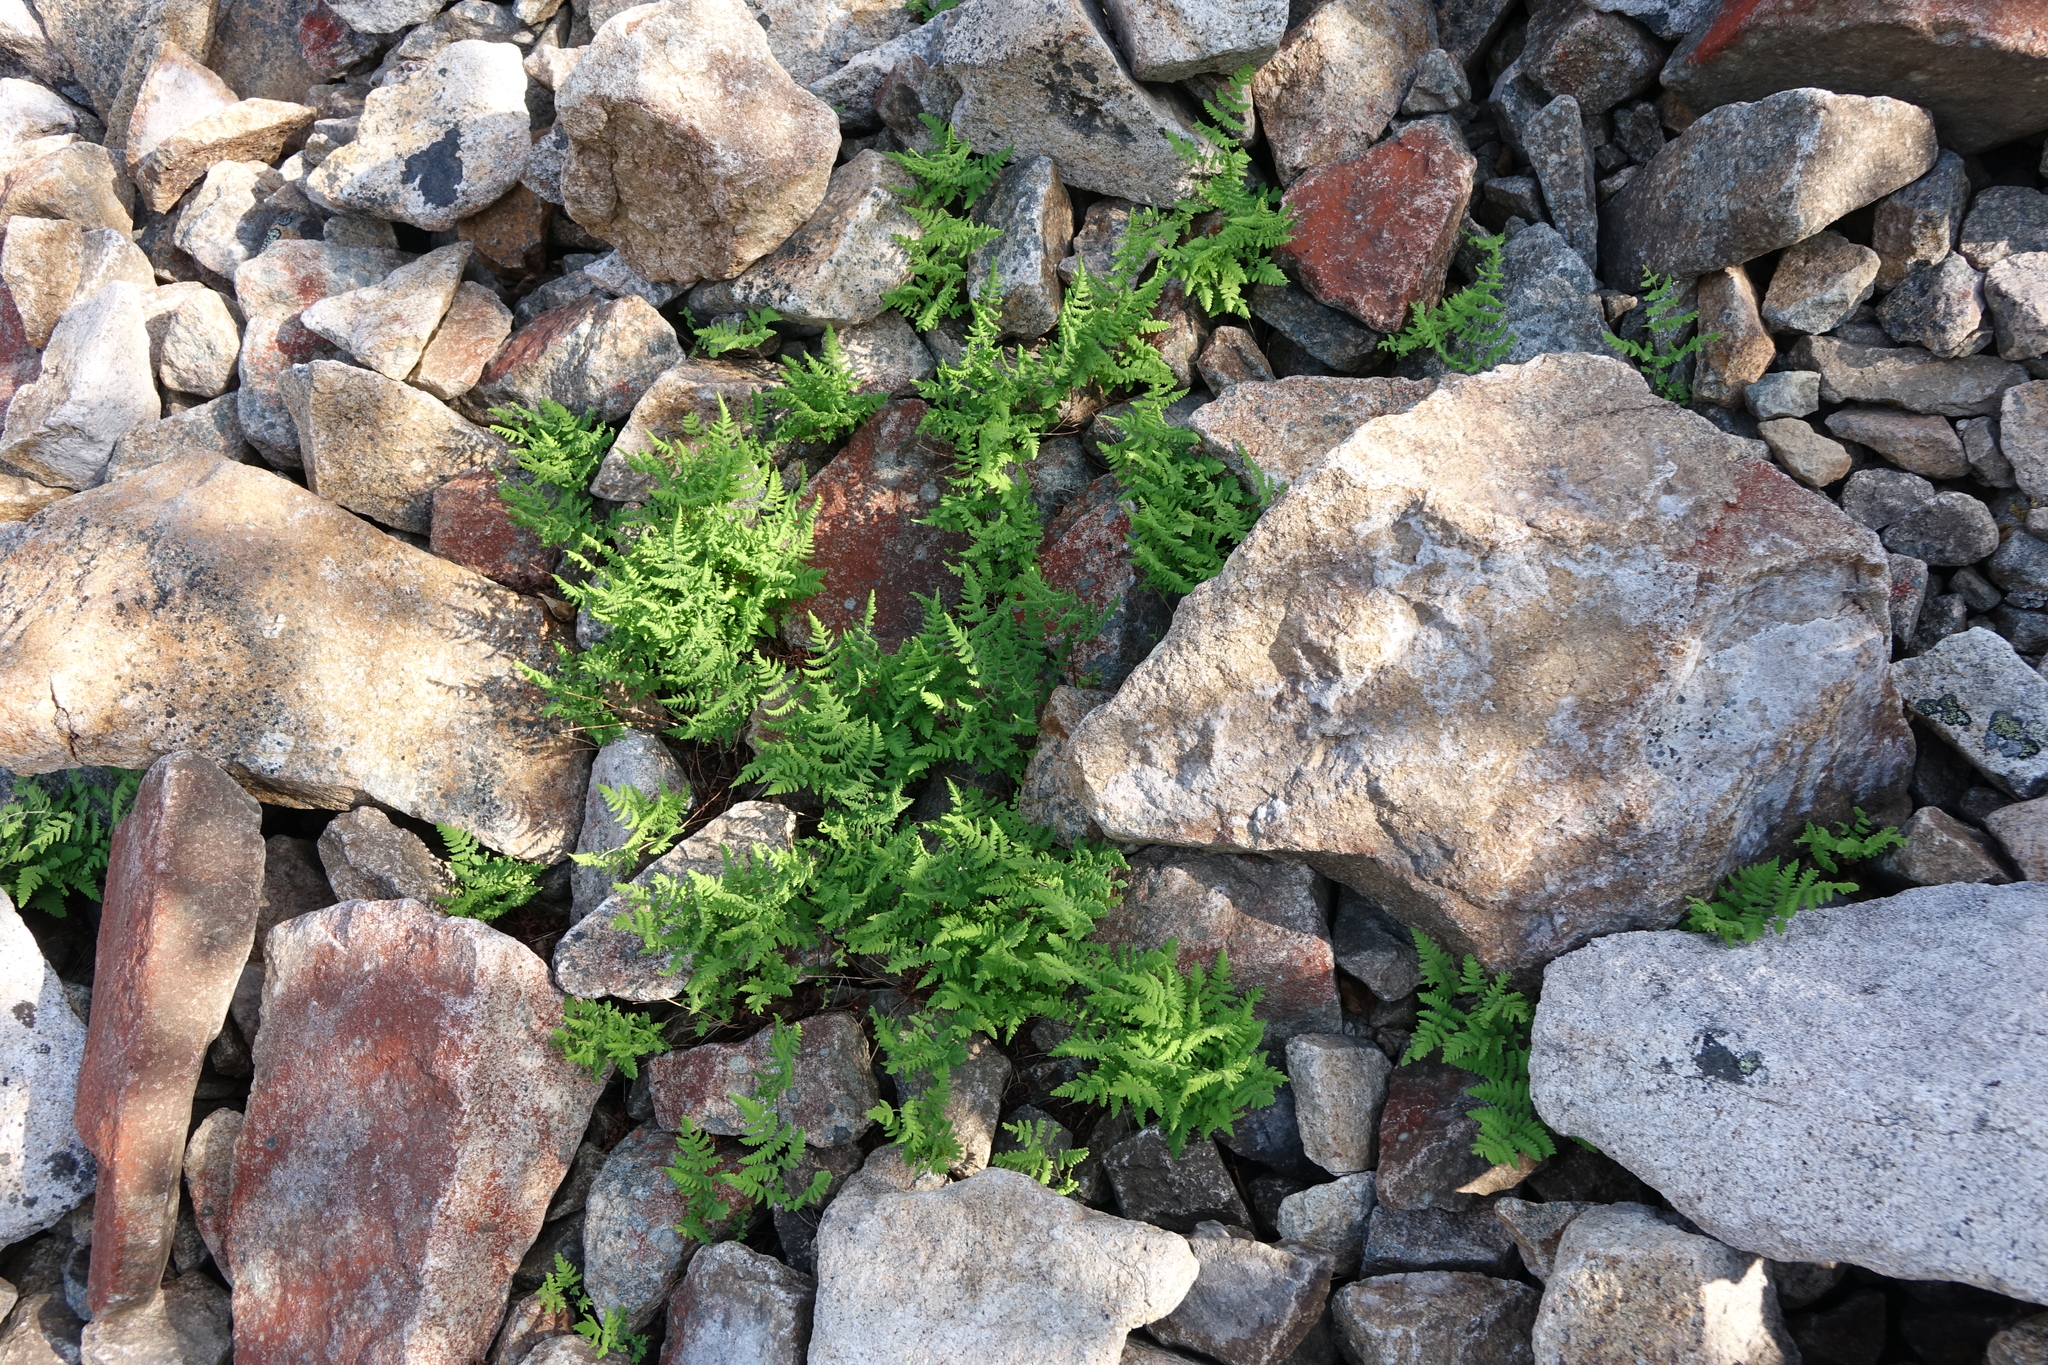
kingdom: Plantae
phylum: Tracheophyta
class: Polypodiopsida
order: Polypodiales
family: Cystopteridaceae
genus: Gymnocarpium
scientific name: Gymnocarpium jessoense
